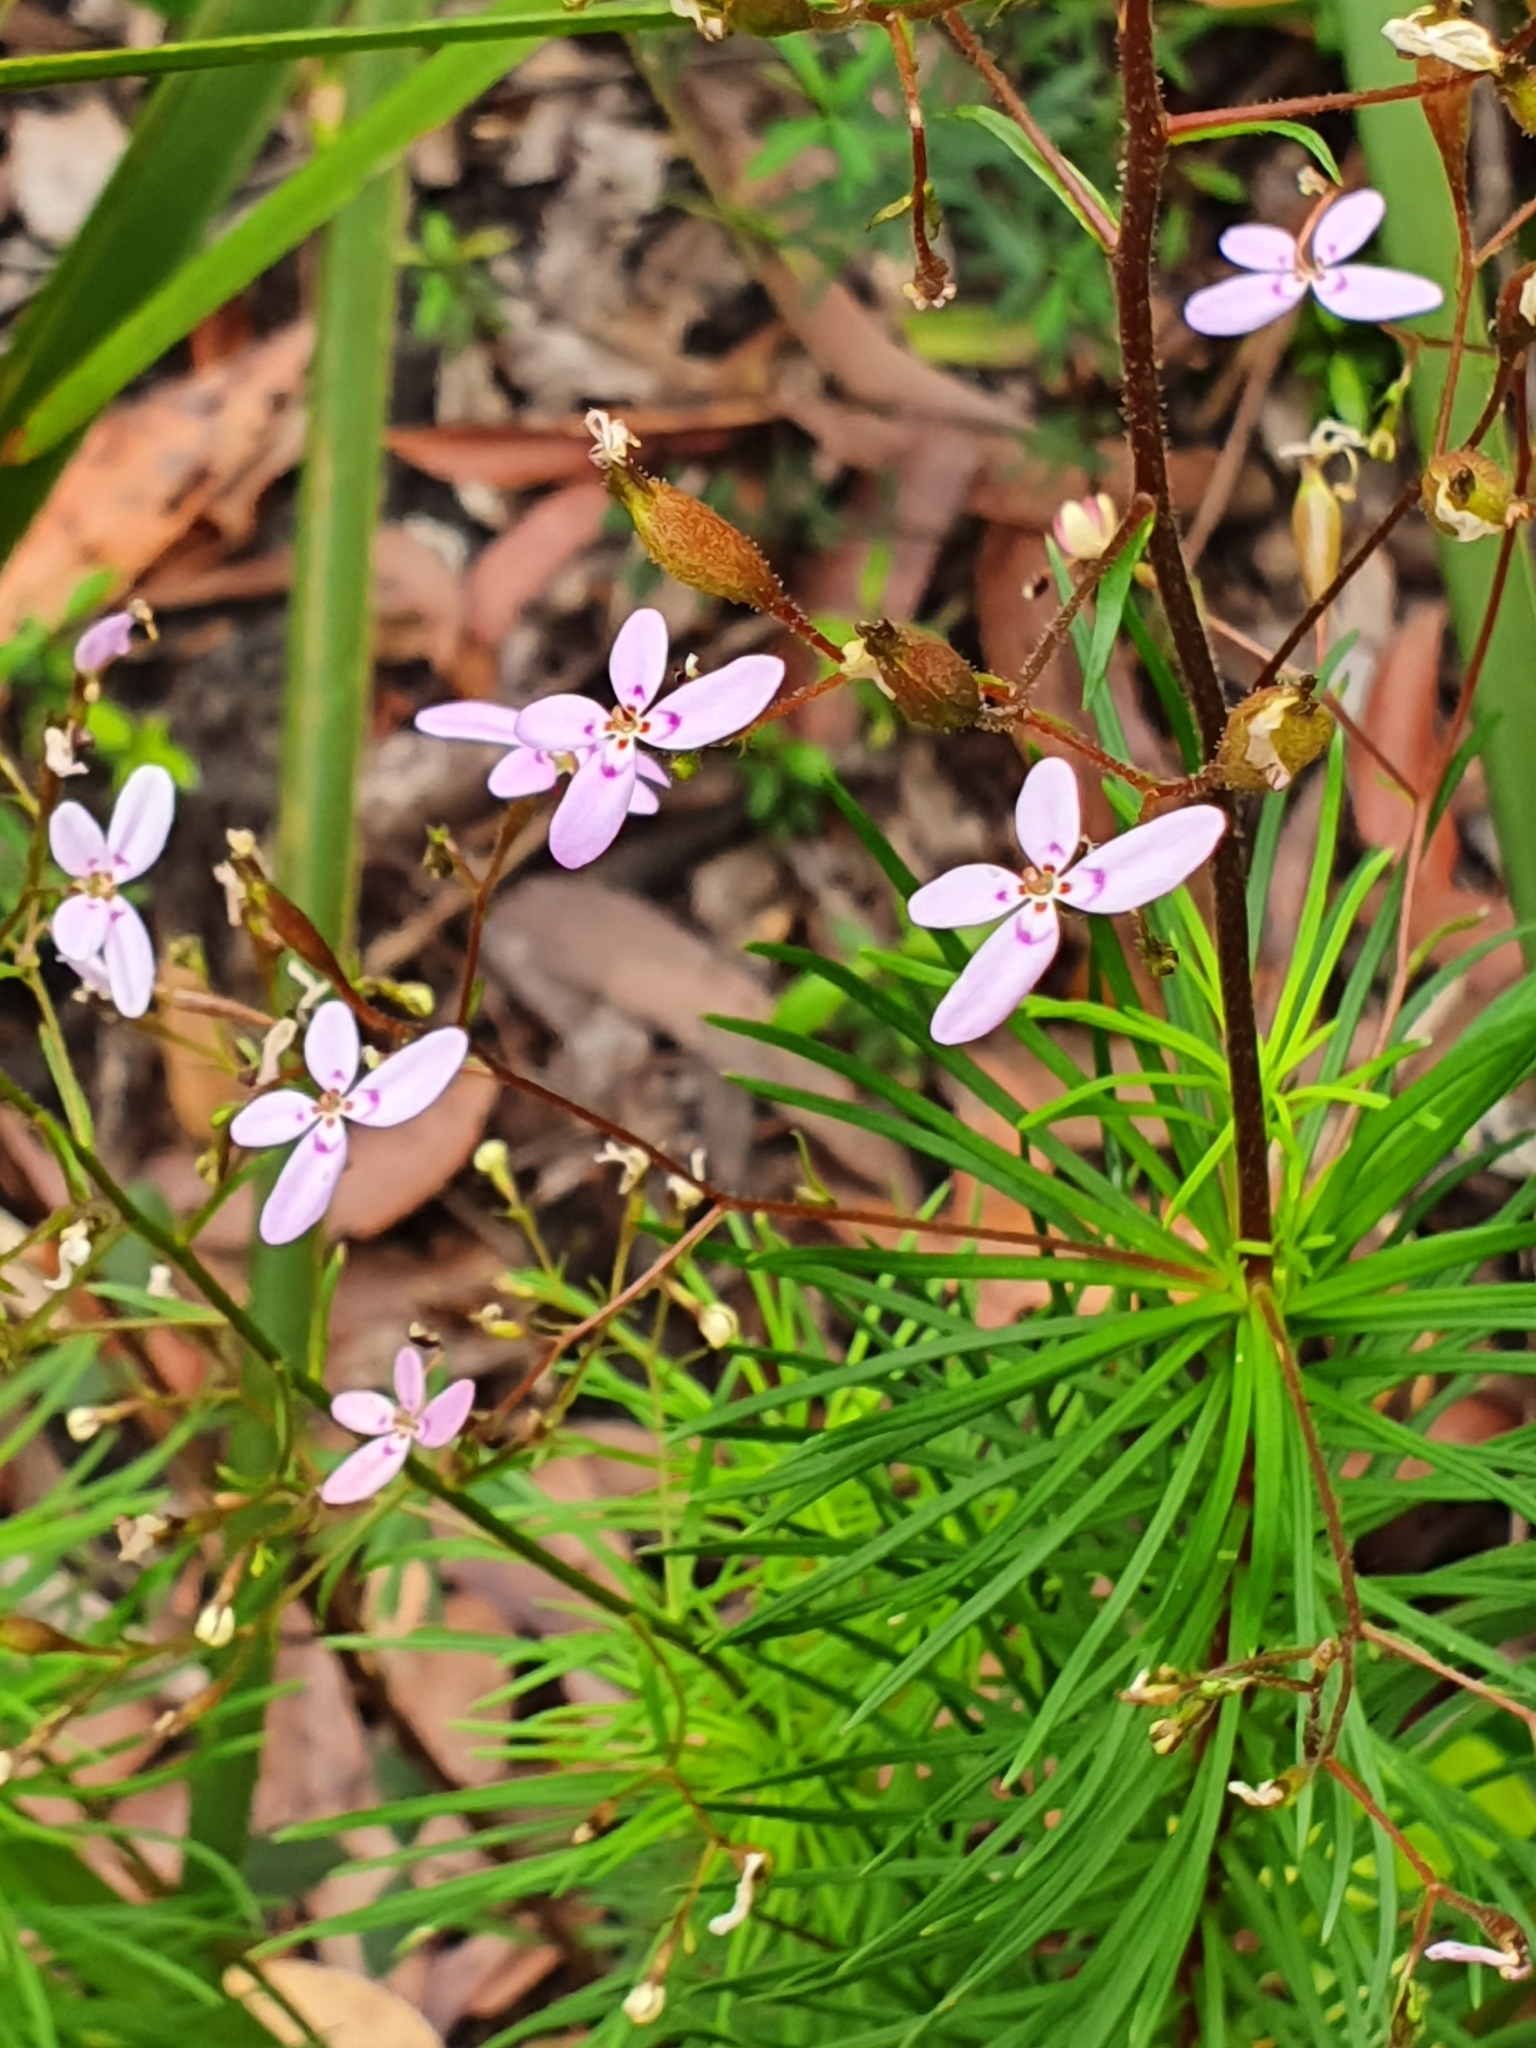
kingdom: Plantae
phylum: Tracheophyta
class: Magnoliopsida
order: Asterales
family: Stylidiaceae
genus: Stylidium
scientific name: Stylidium laricifolium
